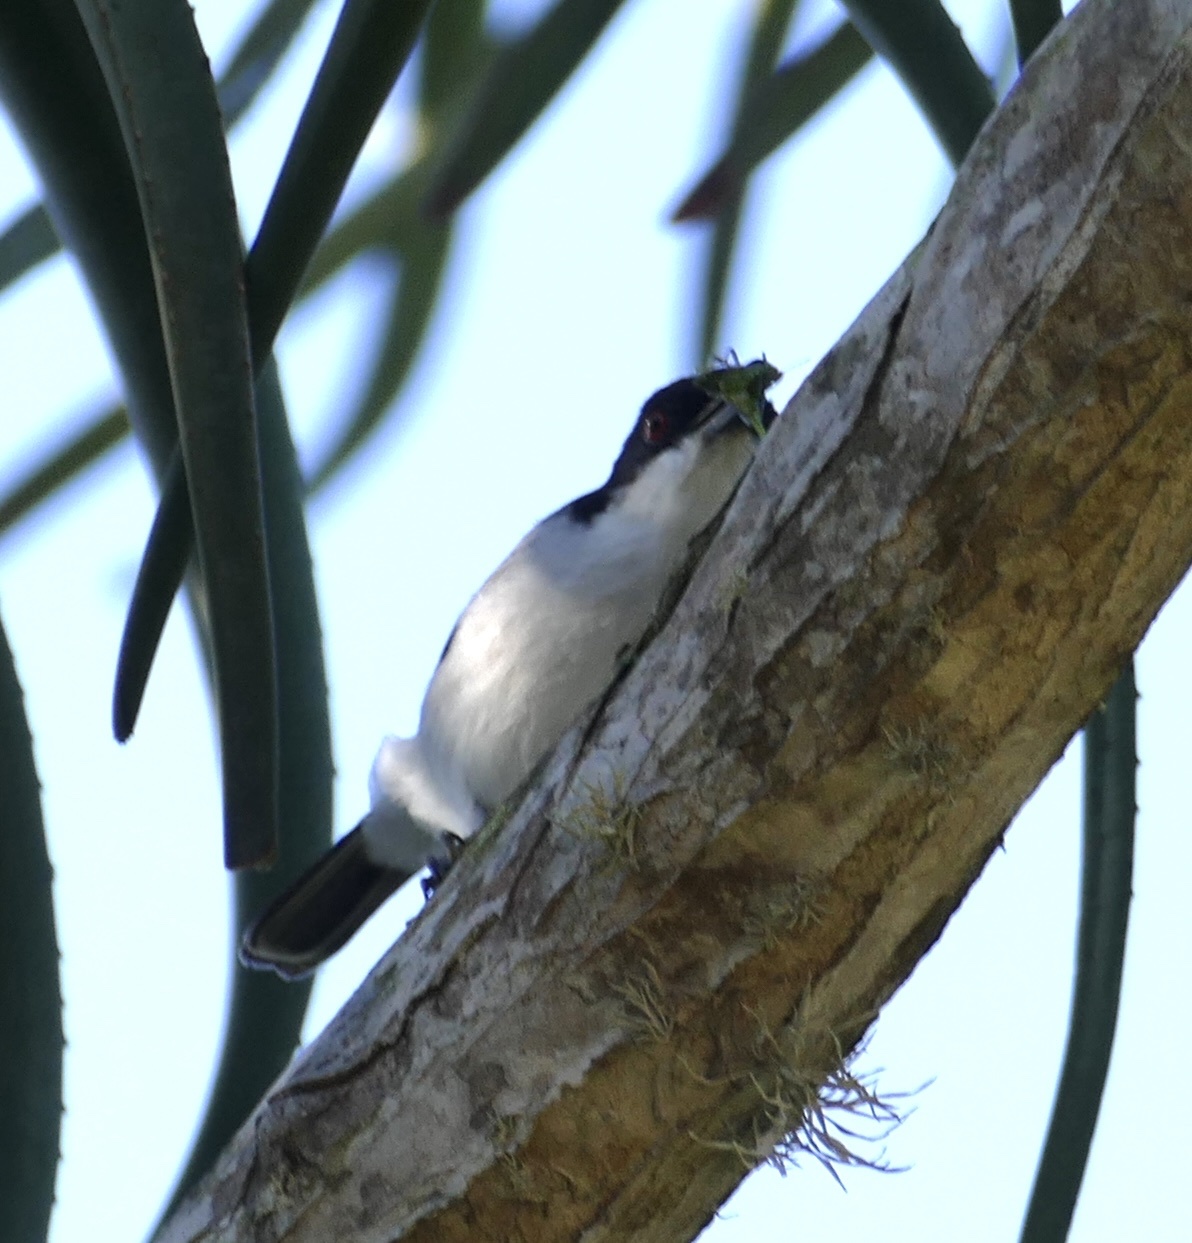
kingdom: Animalia
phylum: Chordata
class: Aves
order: Passeriformes
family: Malaconotidae
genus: Dryoscopus
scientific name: Dryoscopus cubla
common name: Black-backed puffback
